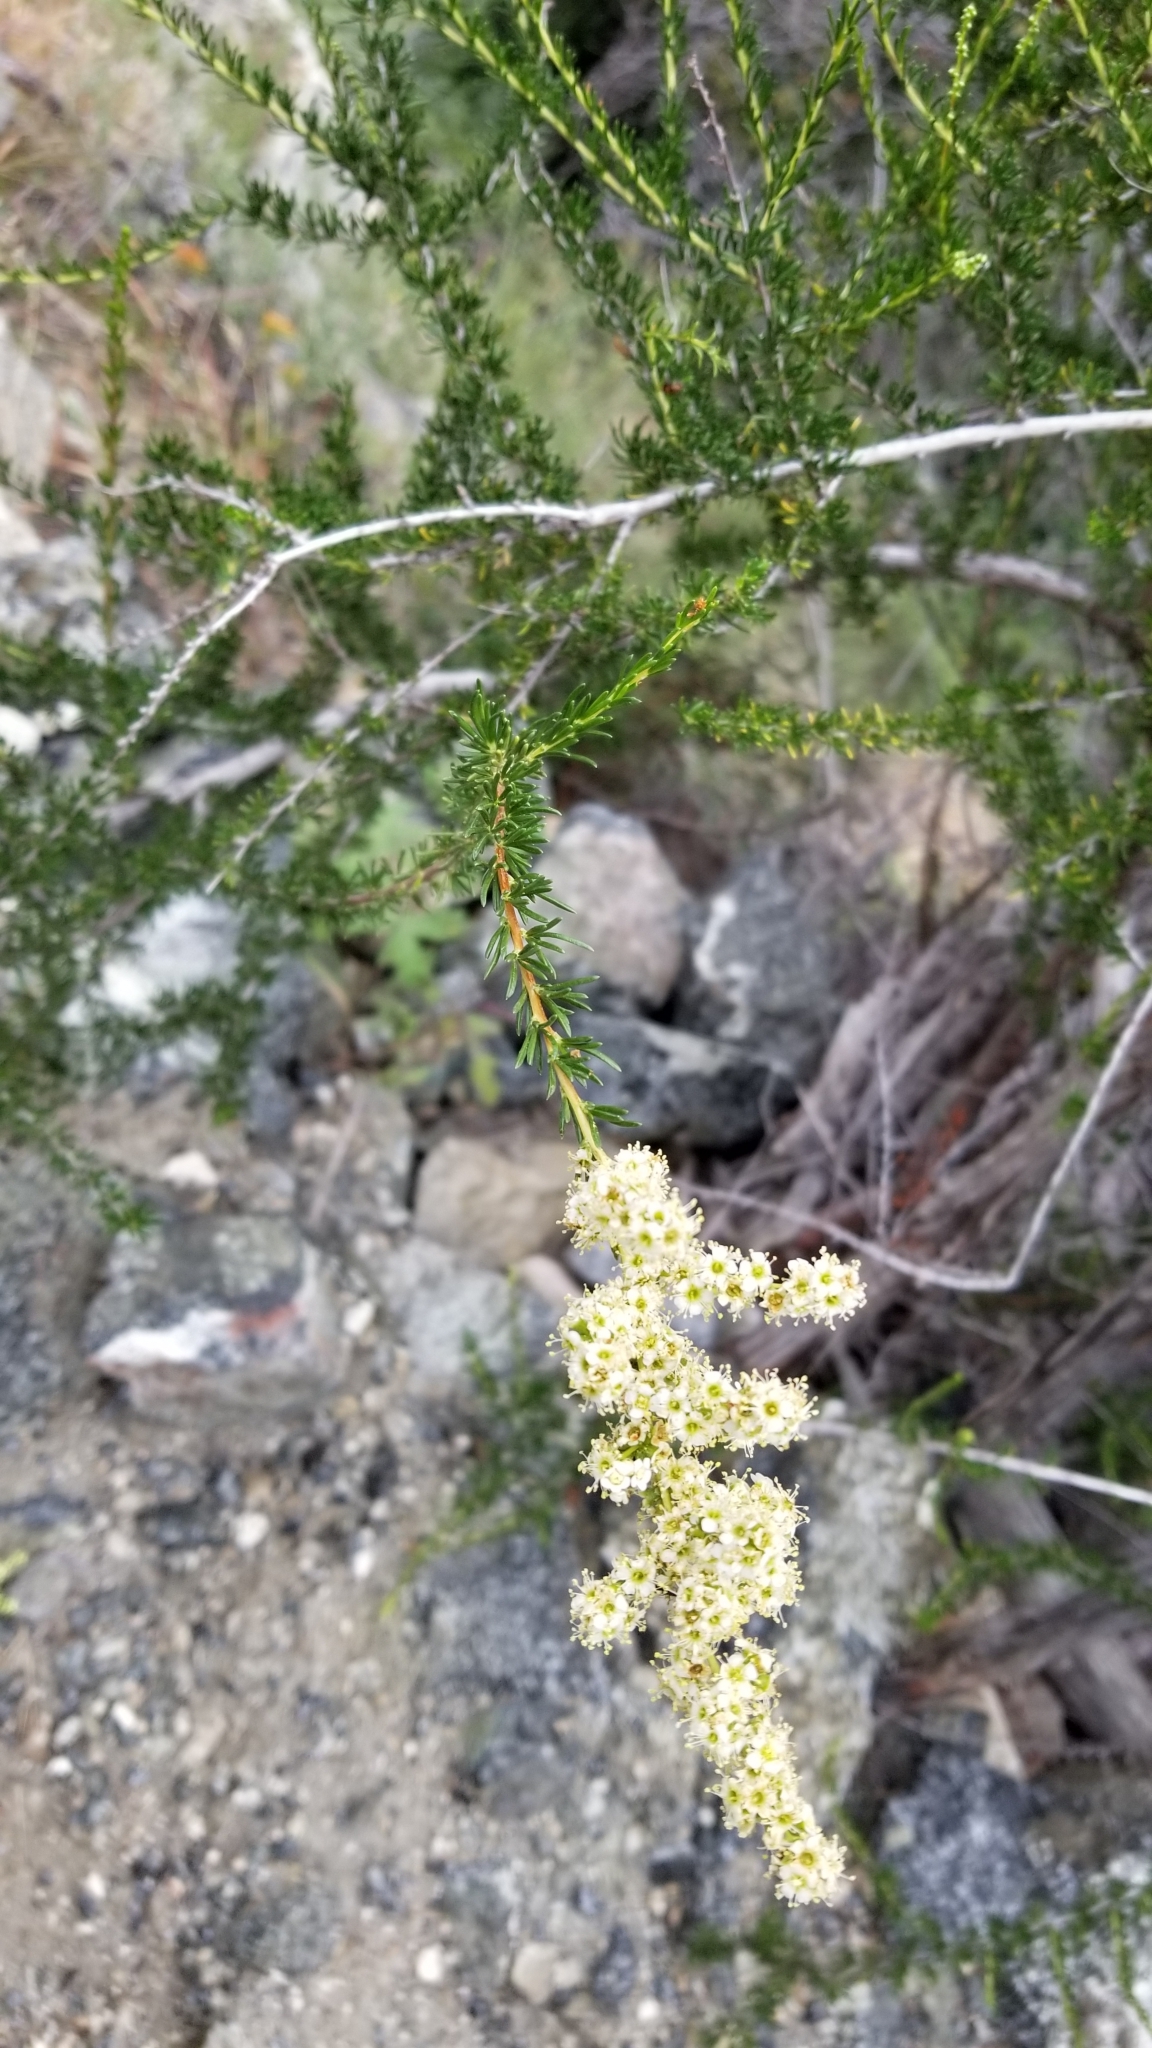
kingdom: Plantae
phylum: Tracheophyta
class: Magnoliopsida
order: Rosales
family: Rosaceae
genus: Adenostoma
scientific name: Adenostoma fasciculatum
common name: Chamise
